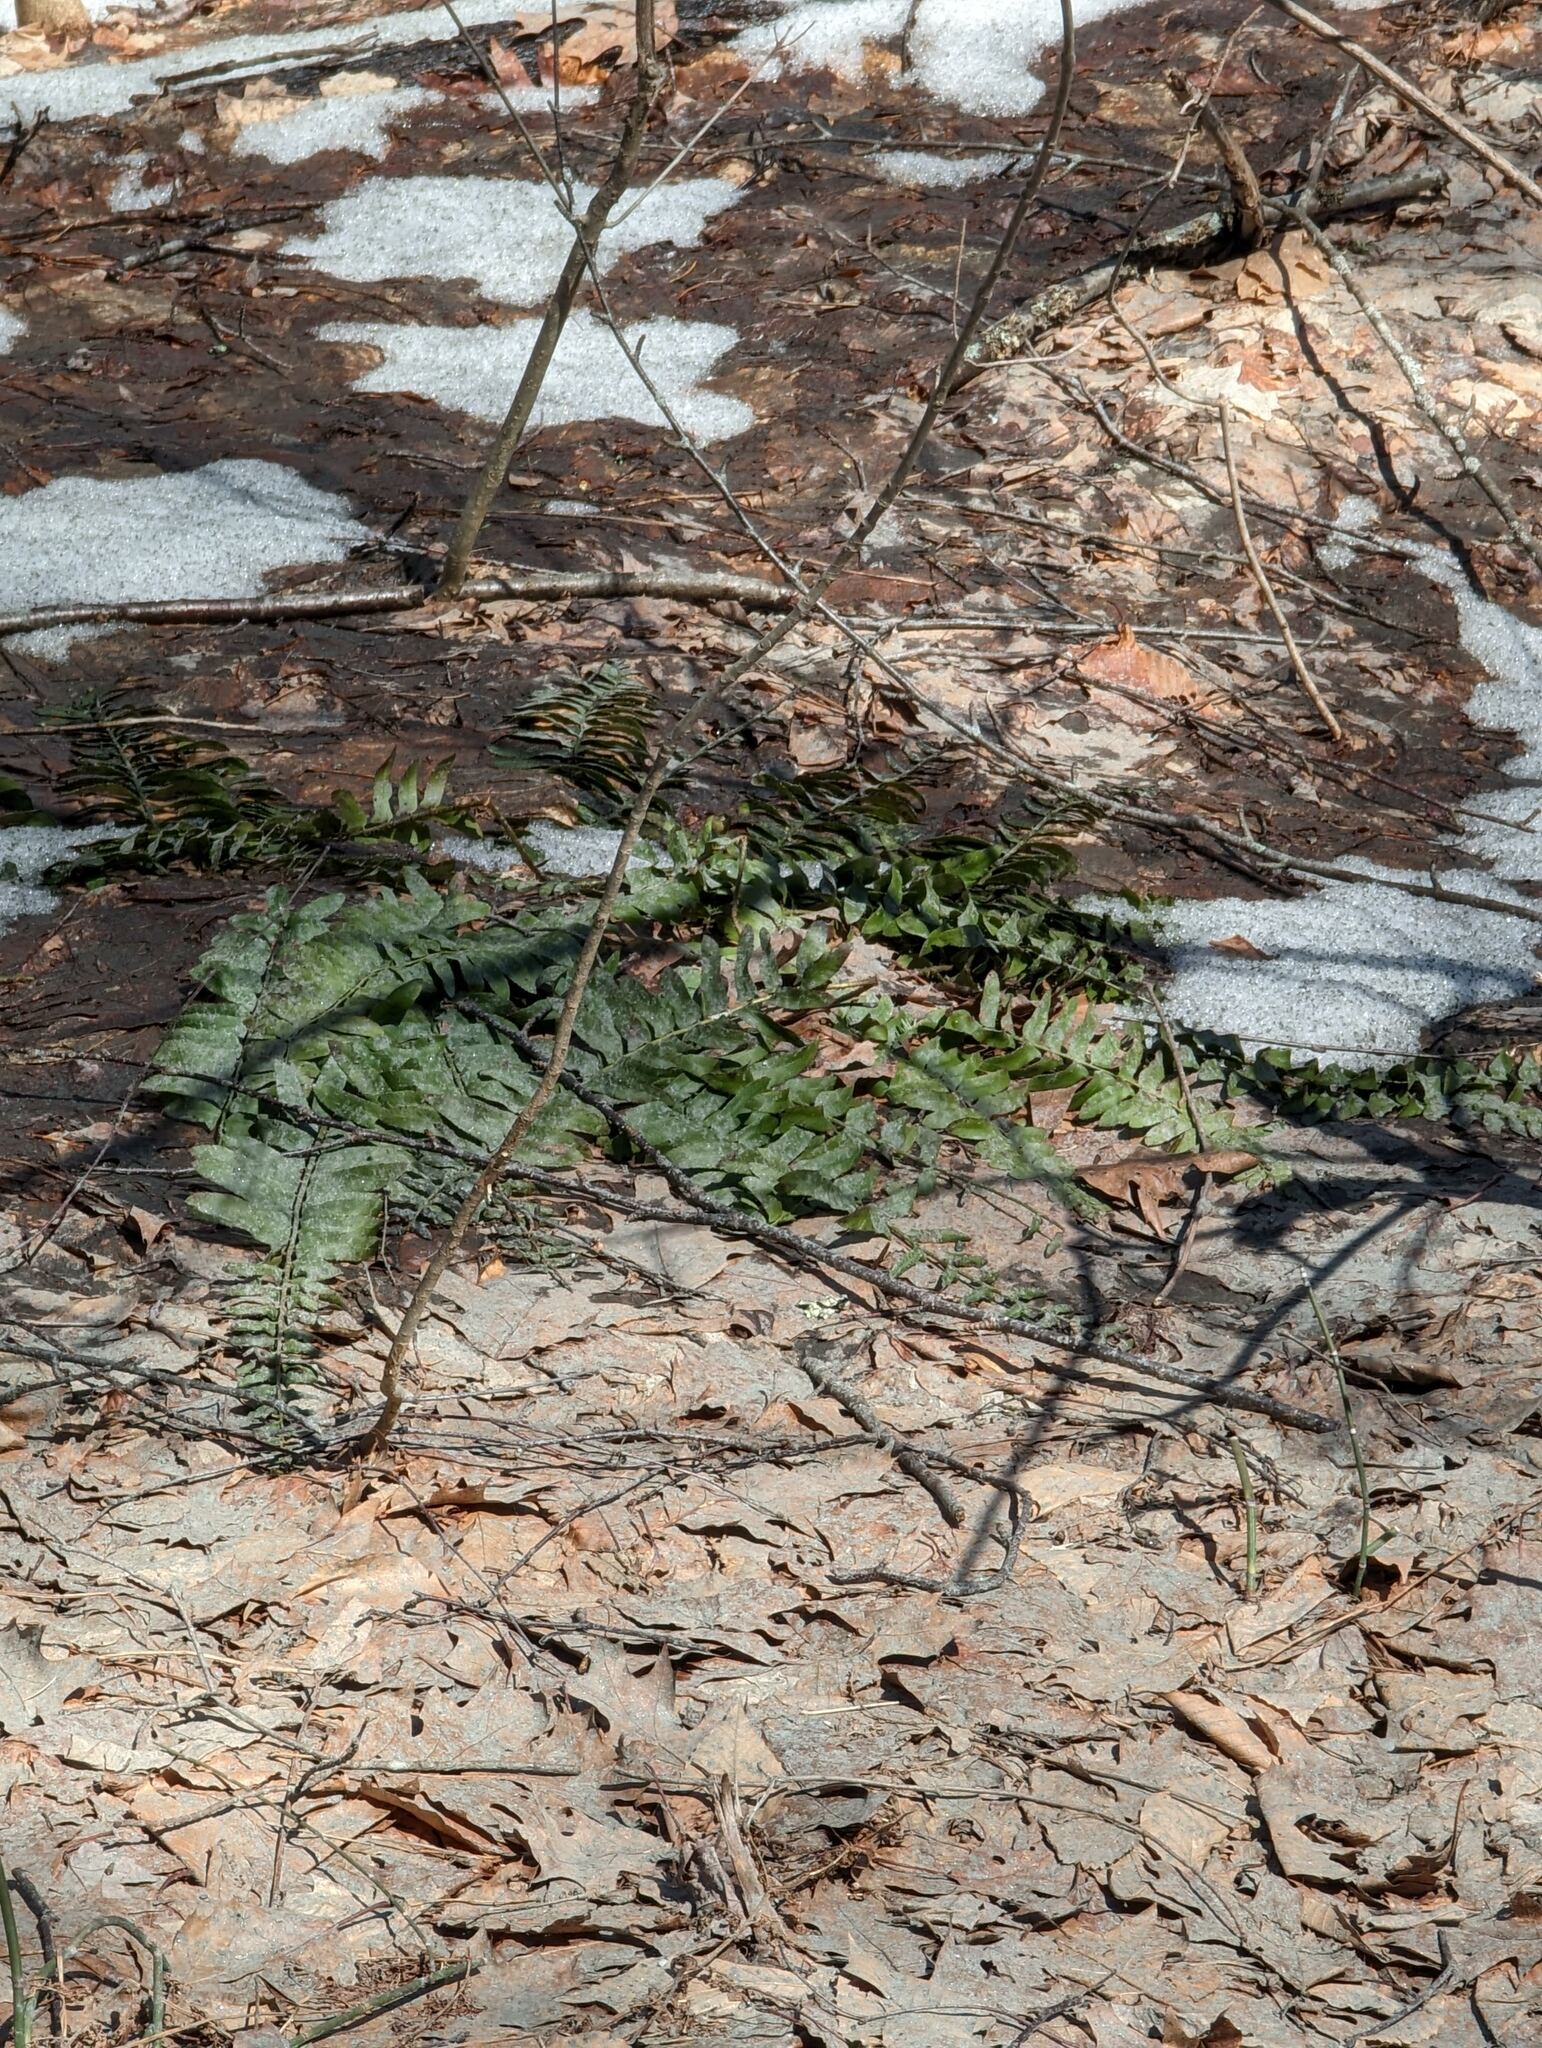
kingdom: Plantae
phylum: Tracheophyta
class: Polypodiopsida
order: Polypodiales
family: Dryopteridaceae
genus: Polystichum
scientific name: Polystichum acrostichoides
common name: Christmas fern
